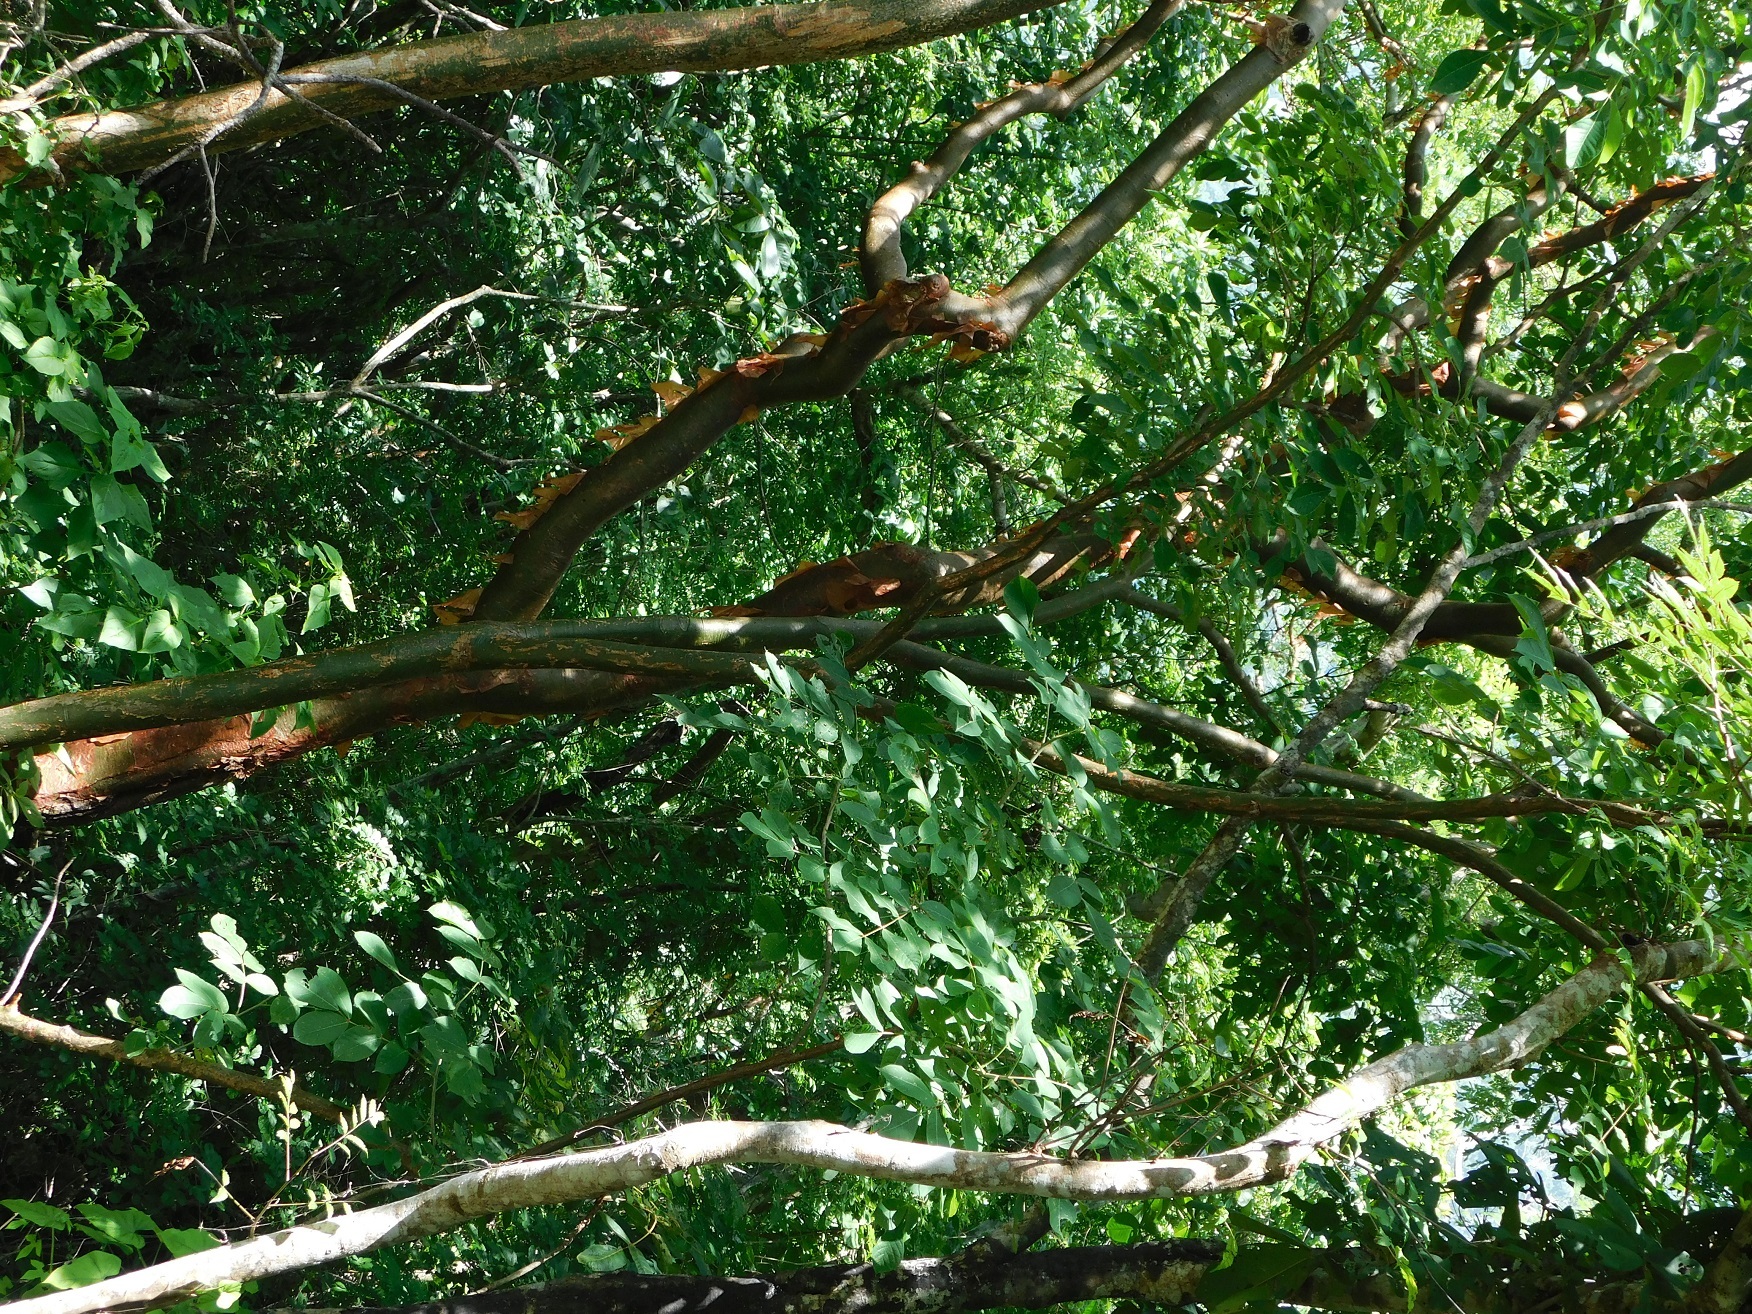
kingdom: Plantae
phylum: Tracheophyta
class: Magnoliopsida
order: Sapindales
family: Burseraceae
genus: Bursera
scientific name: Bursera simaruba
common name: Turpentine tree
